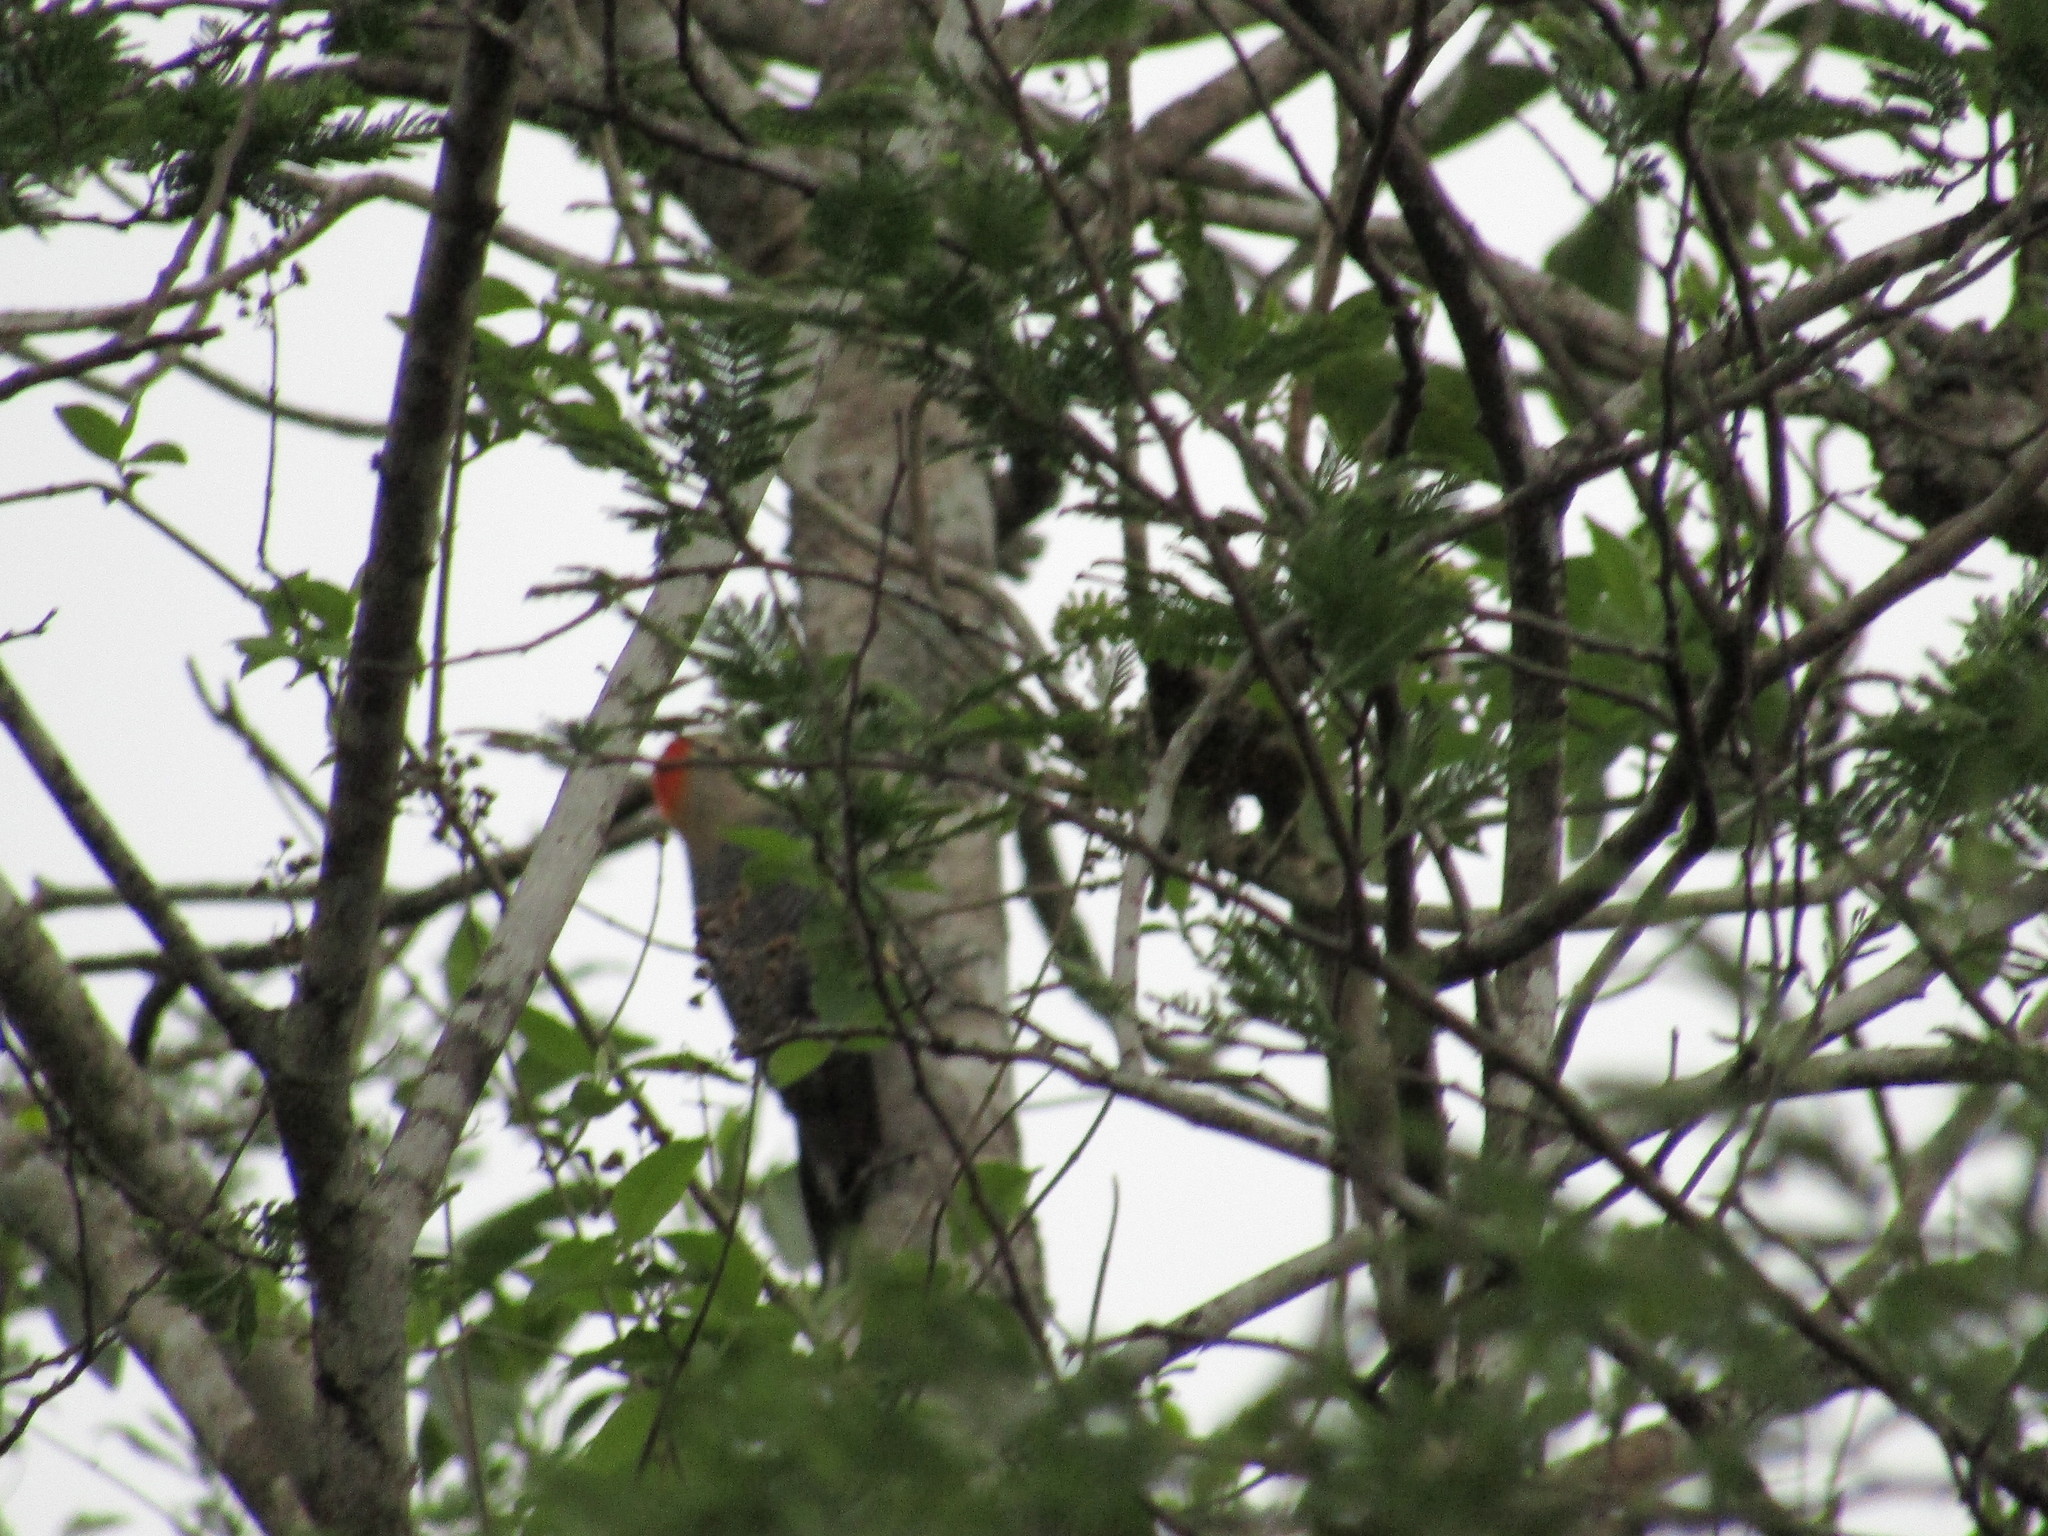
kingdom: Animalia
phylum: Chordata
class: Aves
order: Piciformes
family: Picidae
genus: Melanerpes
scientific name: Melanerpes aurifrons
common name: Golden-fronted woodpecker
